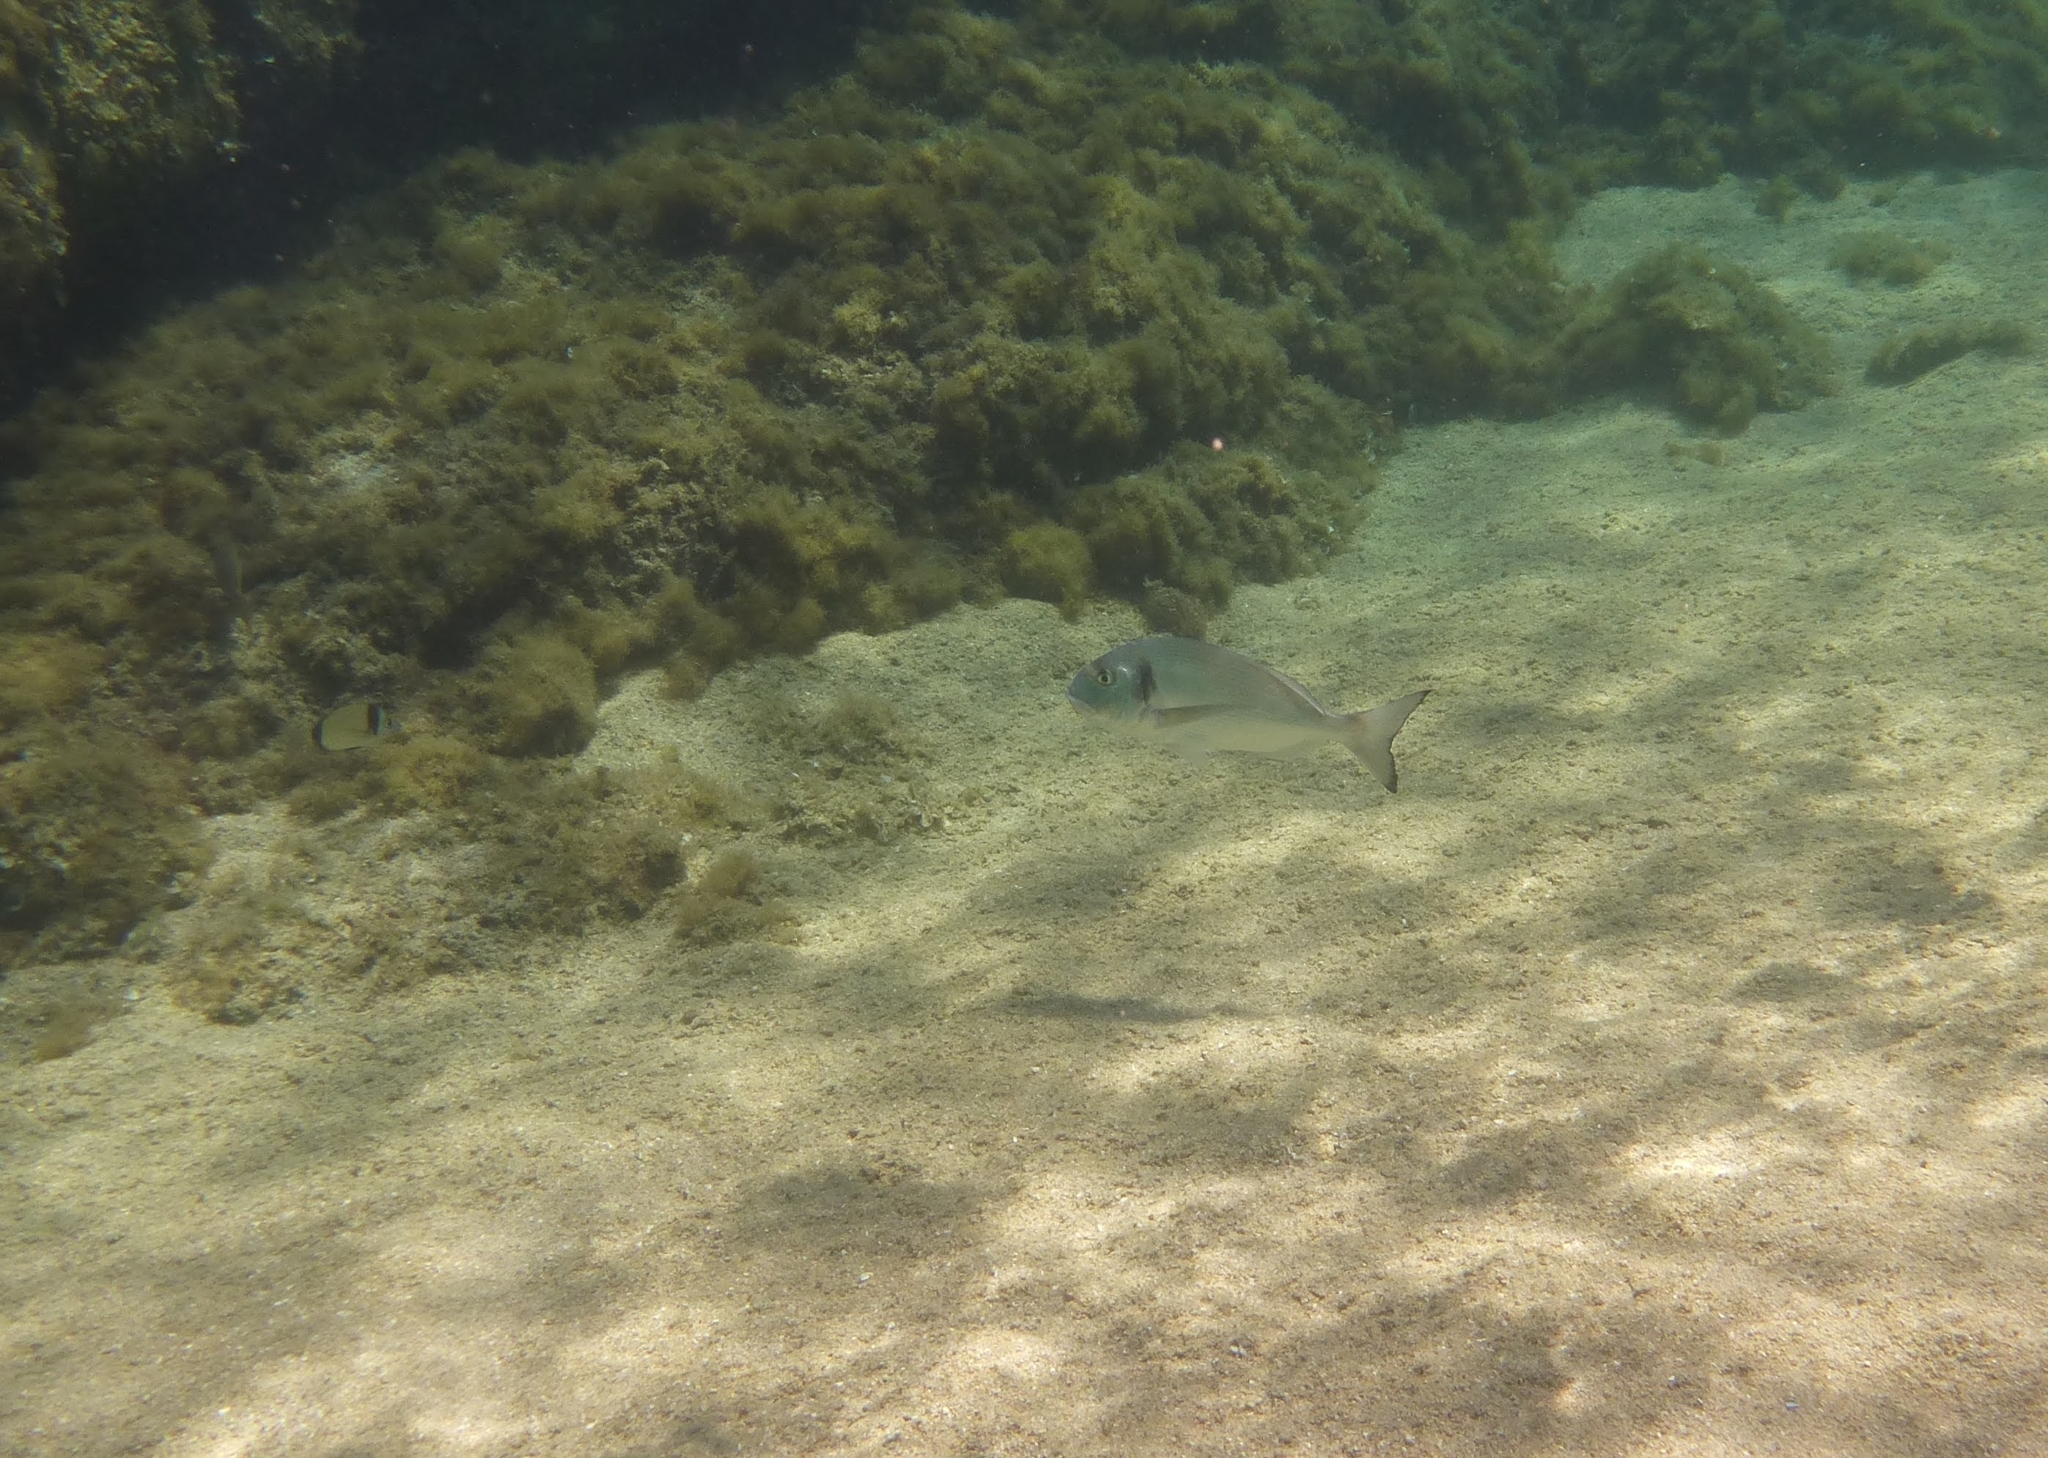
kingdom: Animalia
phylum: Chordata
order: Perciformes
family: Sparidae
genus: Sparus
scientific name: Sparus aurata
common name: Gilthead
